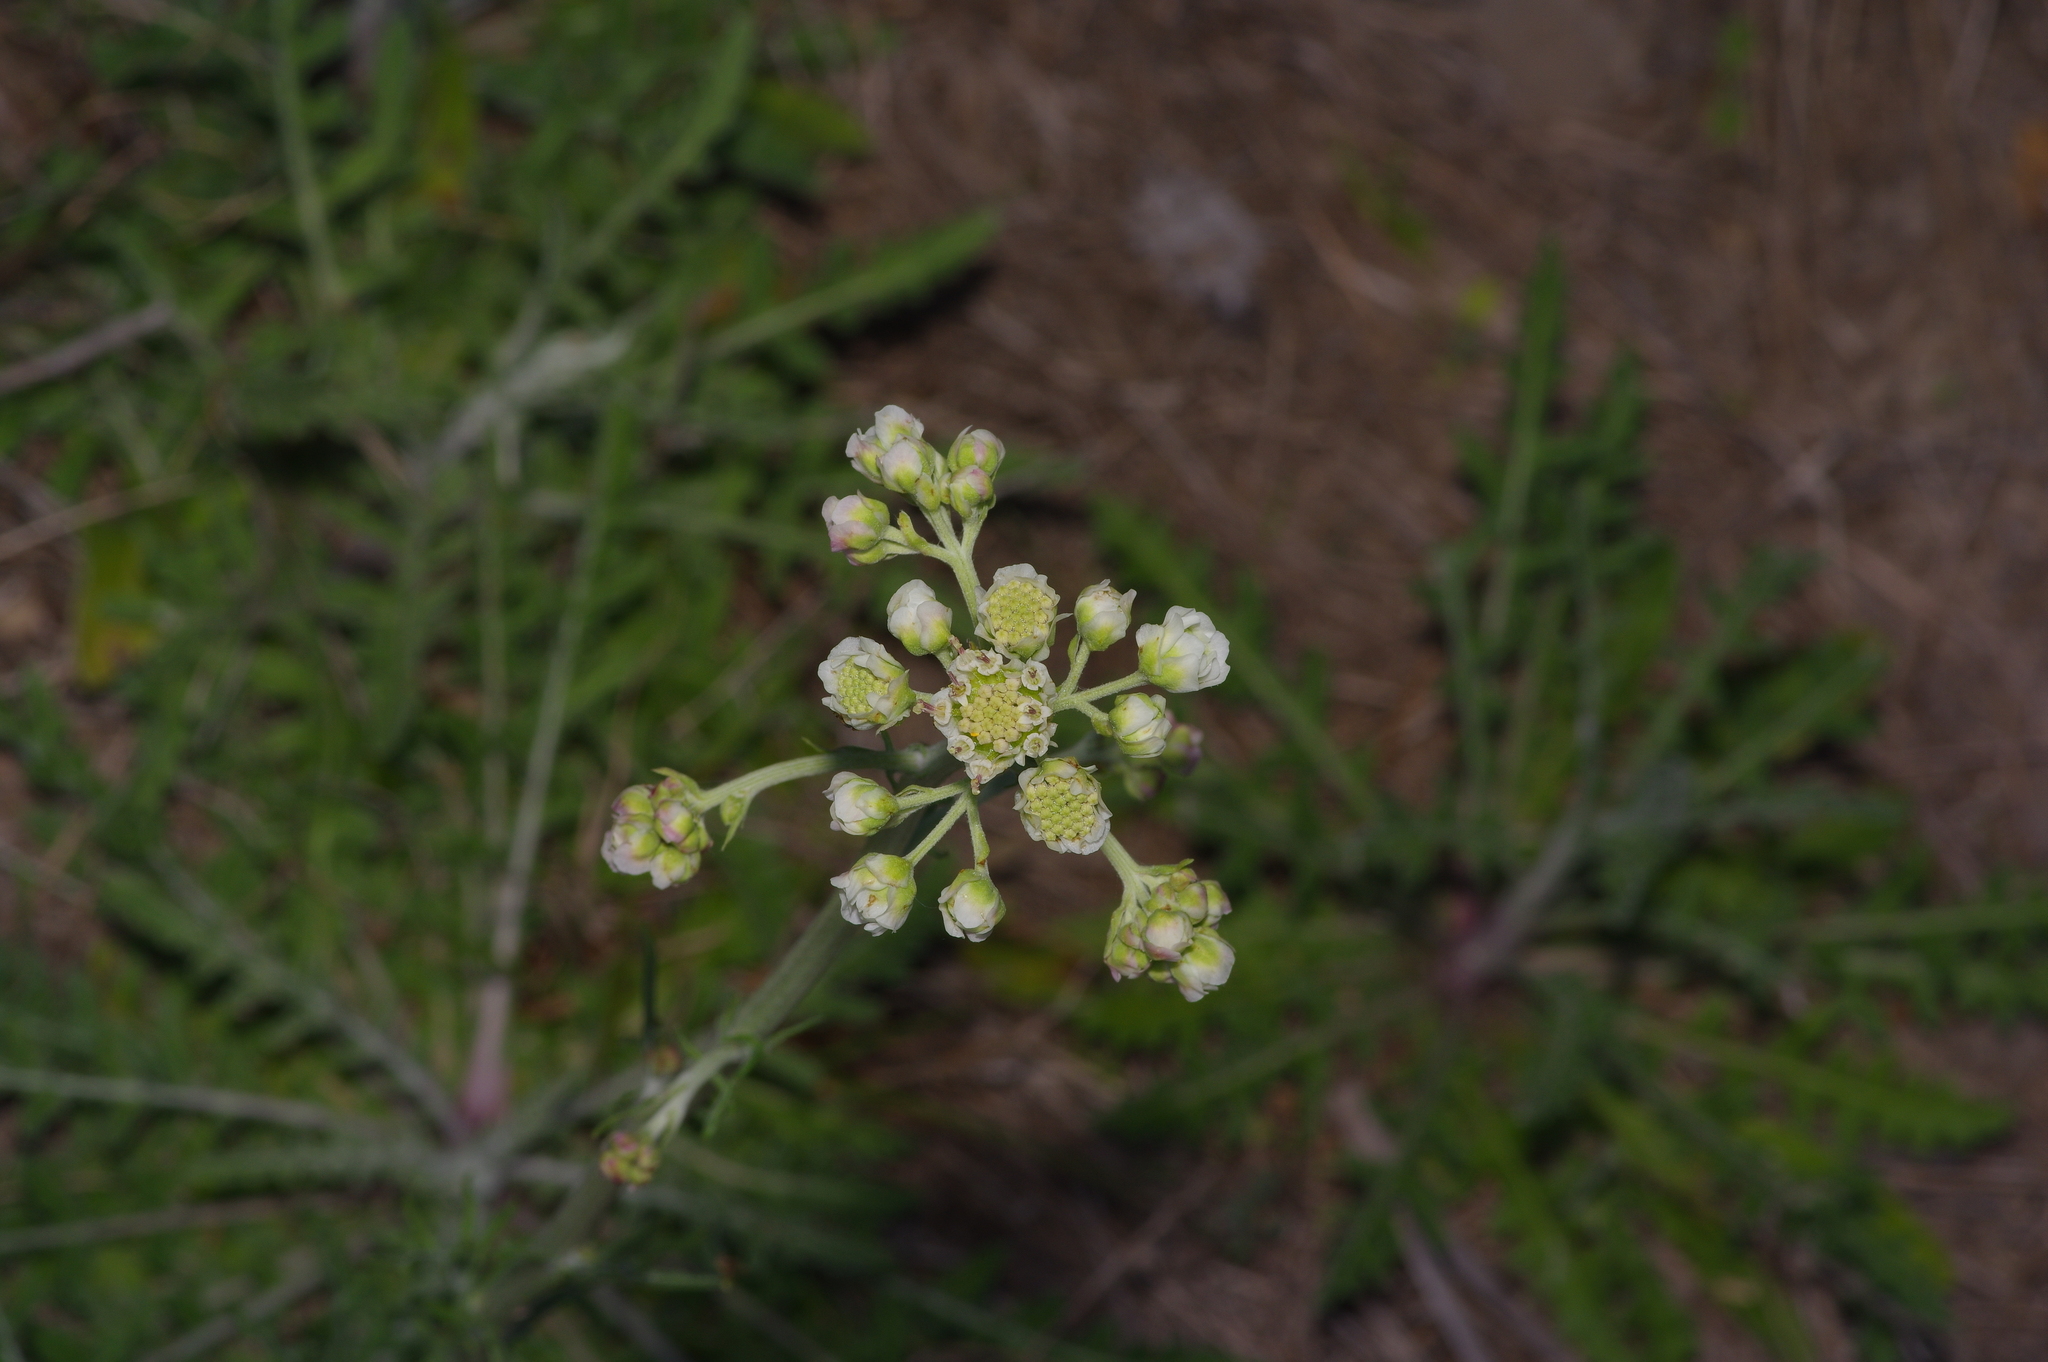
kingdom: Plantae
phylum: Tracheophyta
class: Magnoliopsida
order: Asterales
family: Asteraceae
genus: Hymenopappus
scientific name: Hymenopappus artemisiifolius
